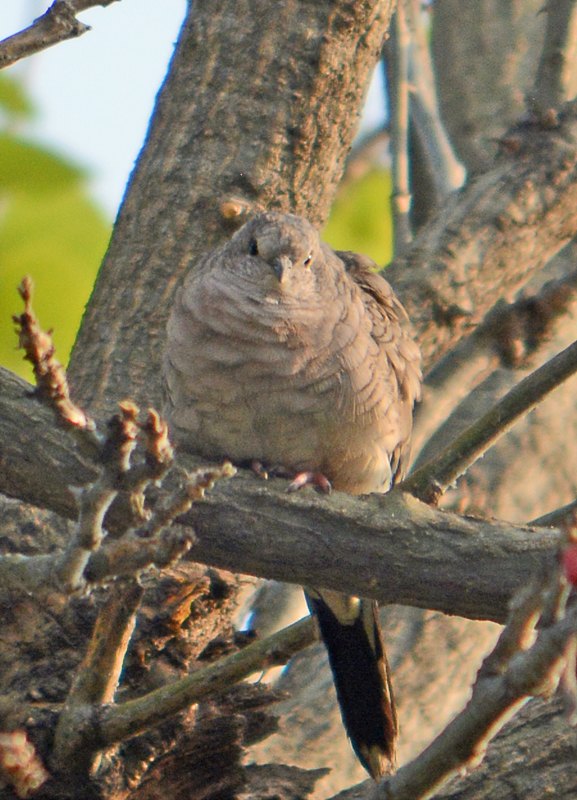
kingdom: Animalia
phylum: Chordata
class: Aves
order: Columbiformes
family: Columbidae
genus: Columbina
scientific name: Columbina inca
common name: Inca dove
